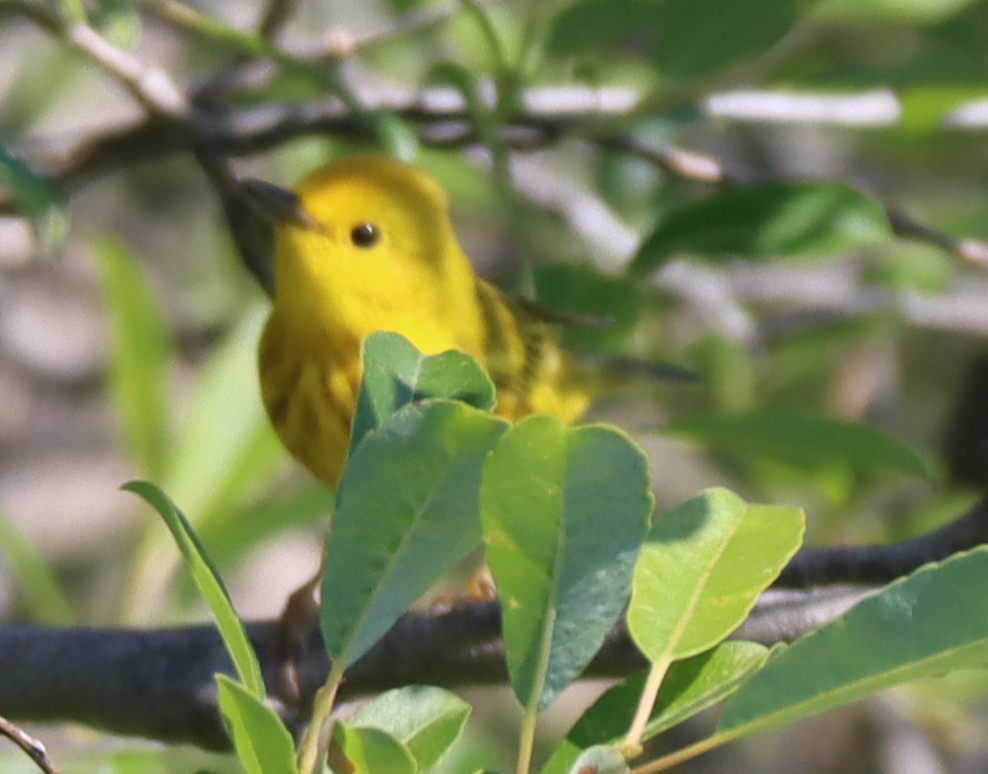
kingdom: Animalia
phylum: Chordata
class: Aves
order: Passeriformes
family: Parulidae
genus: Setophaga
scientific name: Setophaga petechia
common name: Yellow warbler
